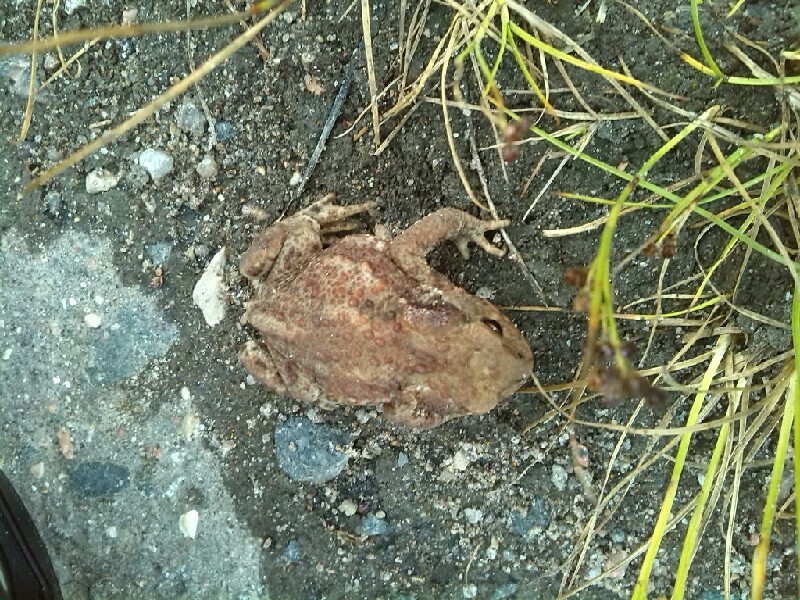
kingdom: Animalia
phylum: Chordata
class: Amphibia
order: Anura
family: Bufonidae
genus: Bufo
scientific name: Bufo bufo
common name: Common toad
